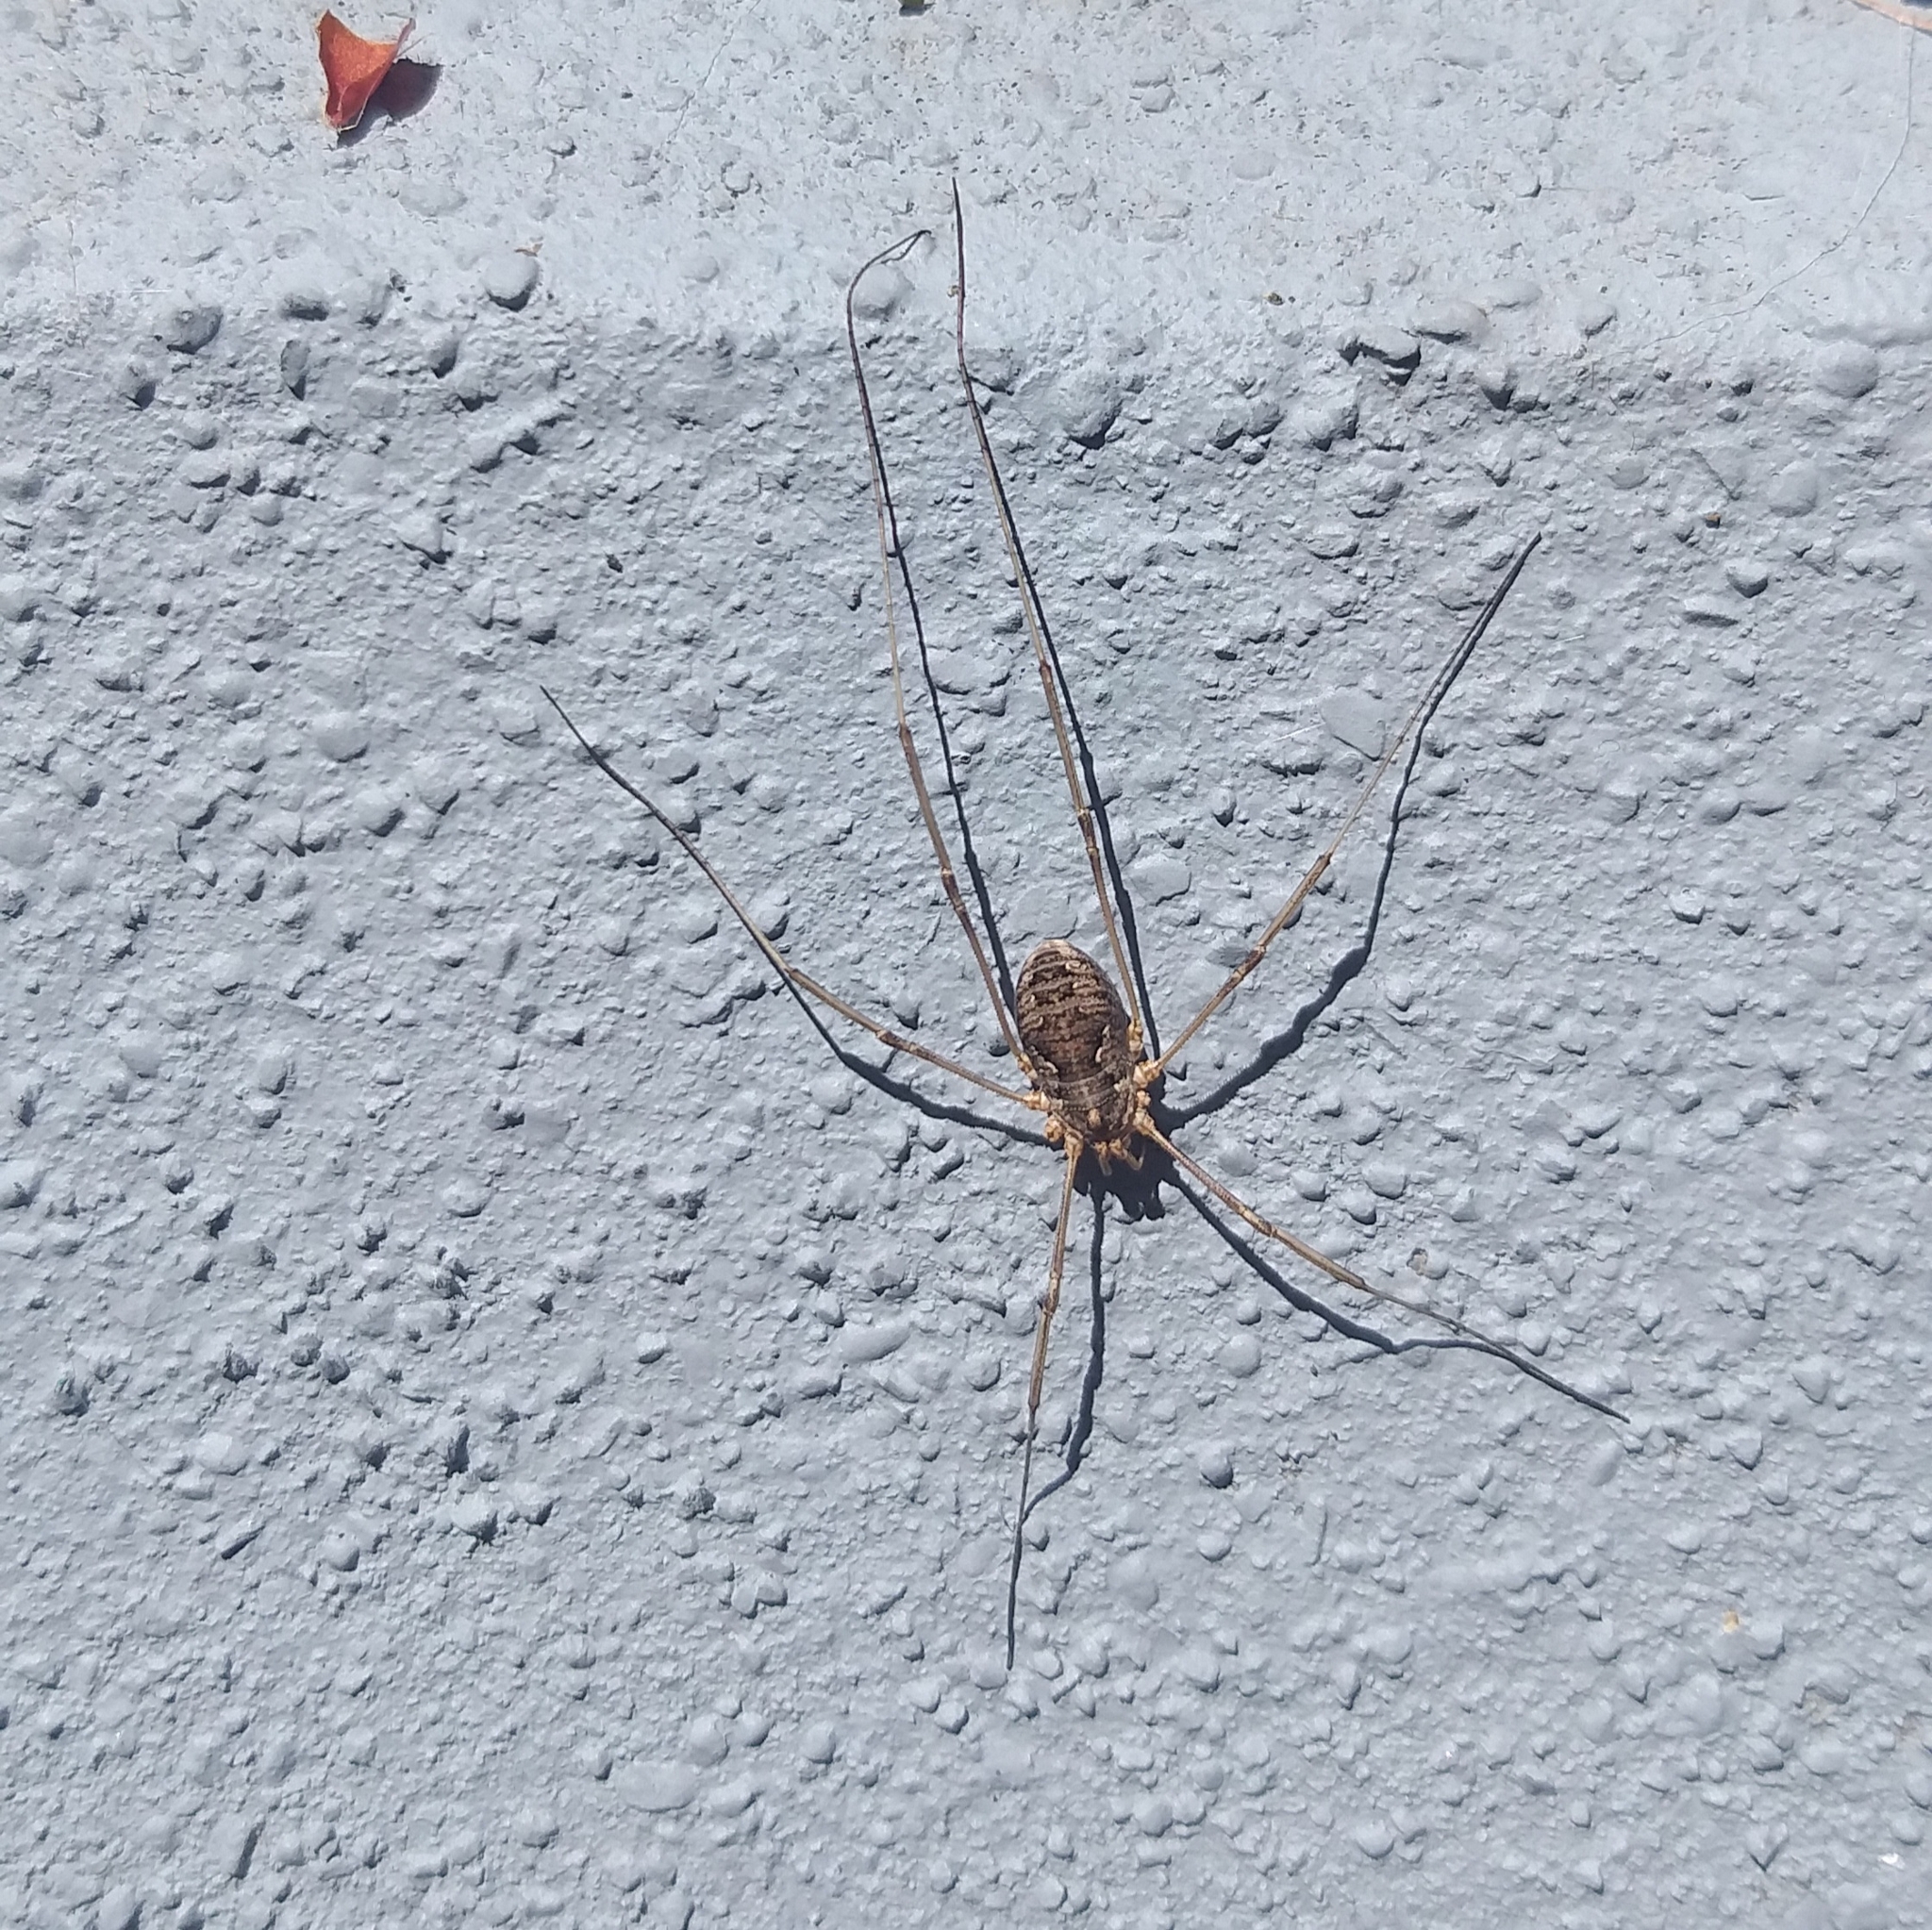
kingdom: Animalia
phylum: Arthropoda
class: Arachnida
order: Opiliones
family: Phalangiidae
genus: Phalangium
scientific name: Phalangium opilio
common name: Daddy longleg
